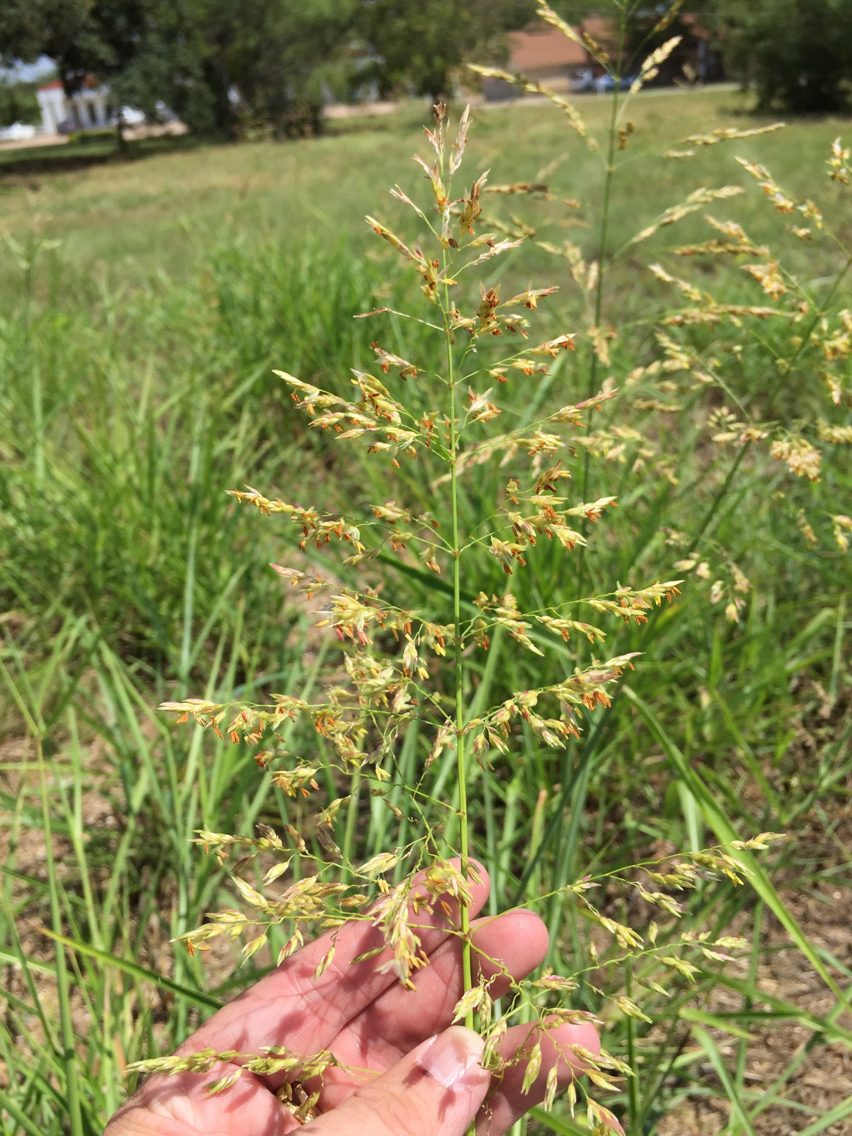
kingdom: Plantae
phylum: Tracheophyta
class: Liliopsida
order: Poales
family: Poaceae
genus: Sorghum
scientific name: Sorghum halepense
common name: Johnson-grass
